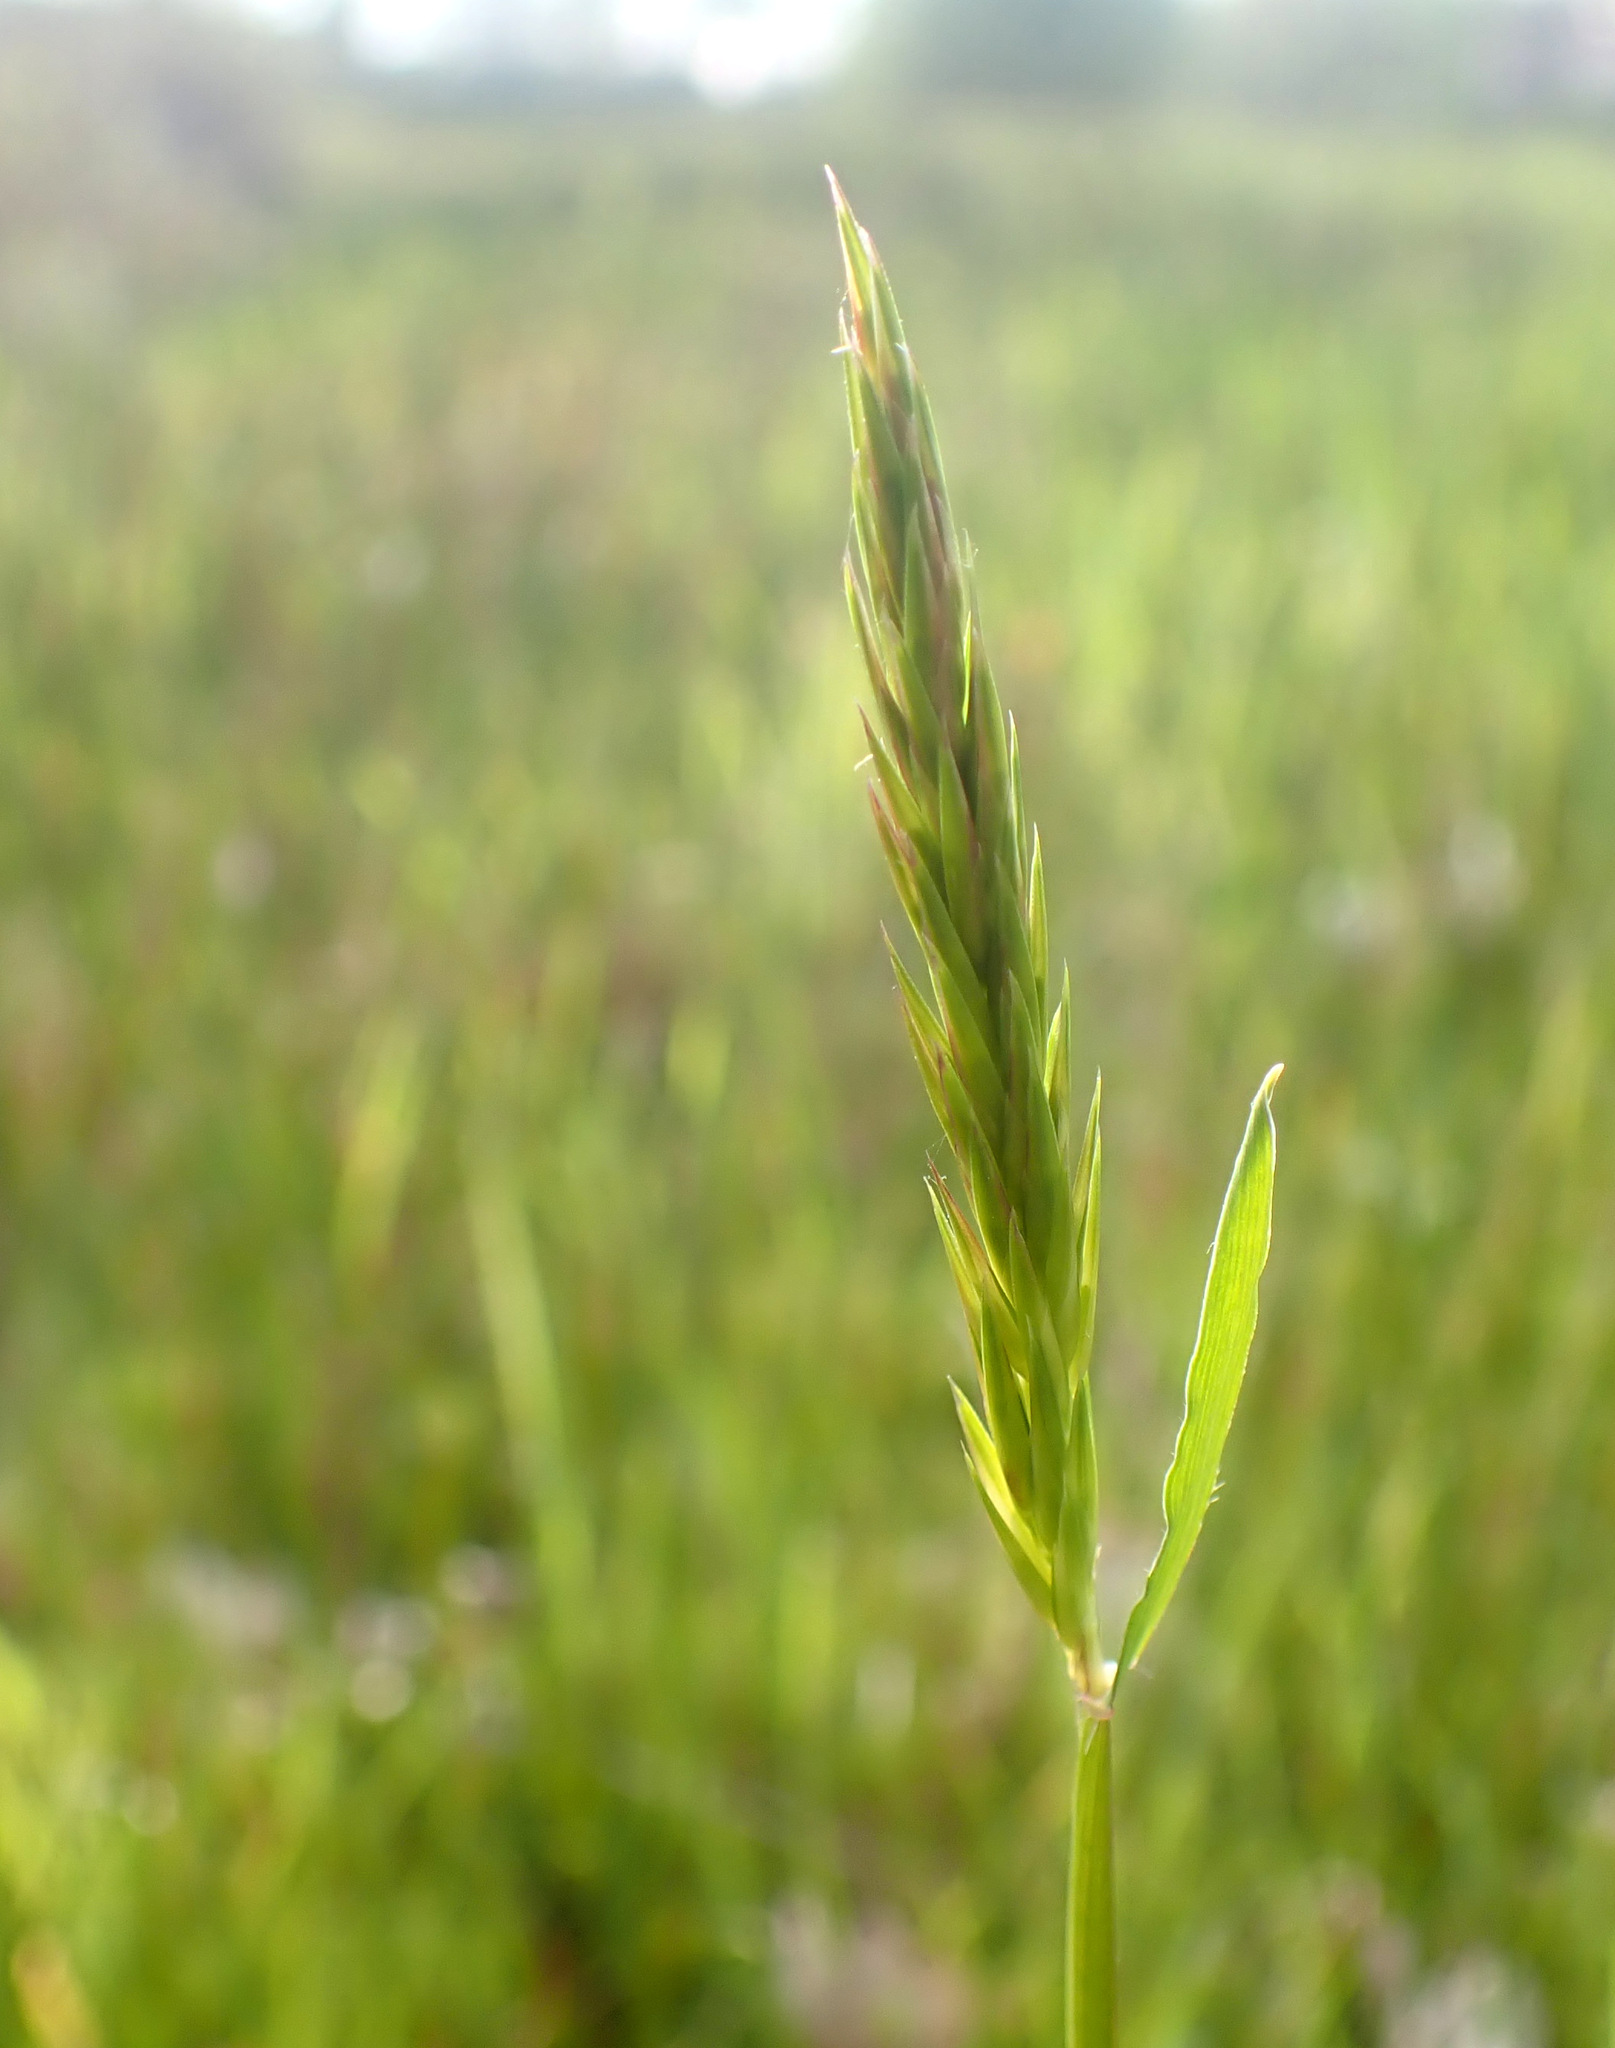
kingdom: Plantae
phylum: Tracheophyta
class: Liliopsida
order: Poales
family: Poaceae
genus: Anthoxanthum
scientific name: Anthoxanthum odoratum
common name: Sweet vernalgrass
